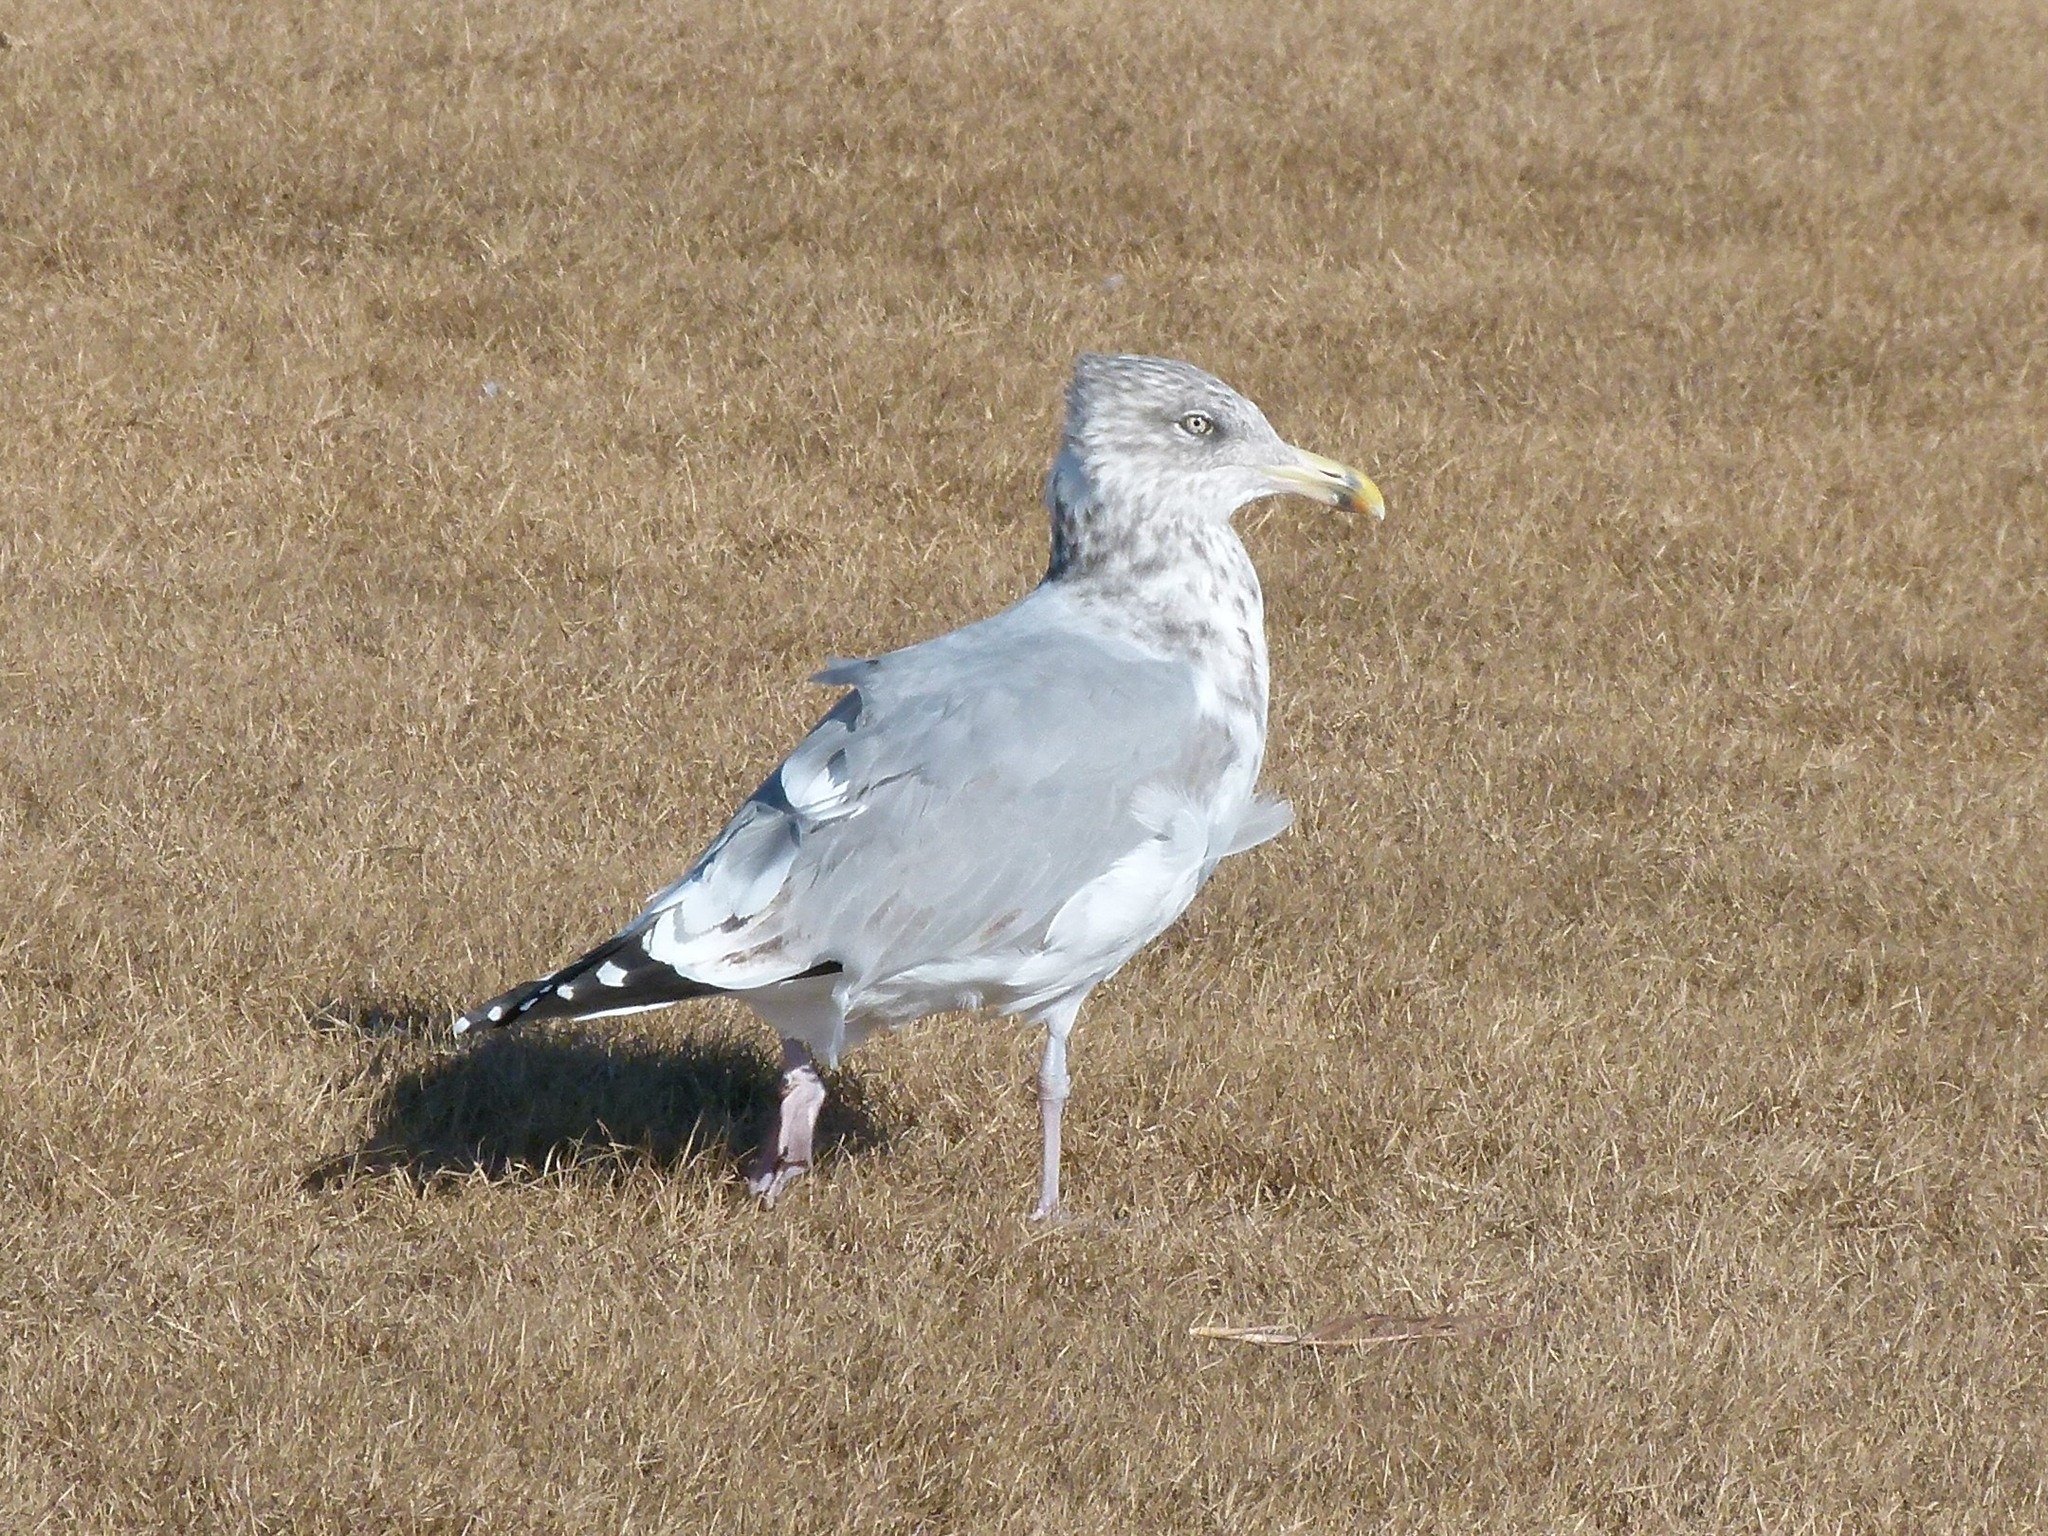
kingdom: Animalia
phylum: Chordata
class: Aves
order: Charadriiformes
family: Laridae
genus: Larus
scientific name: Larus argentatus
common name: Herring gull
